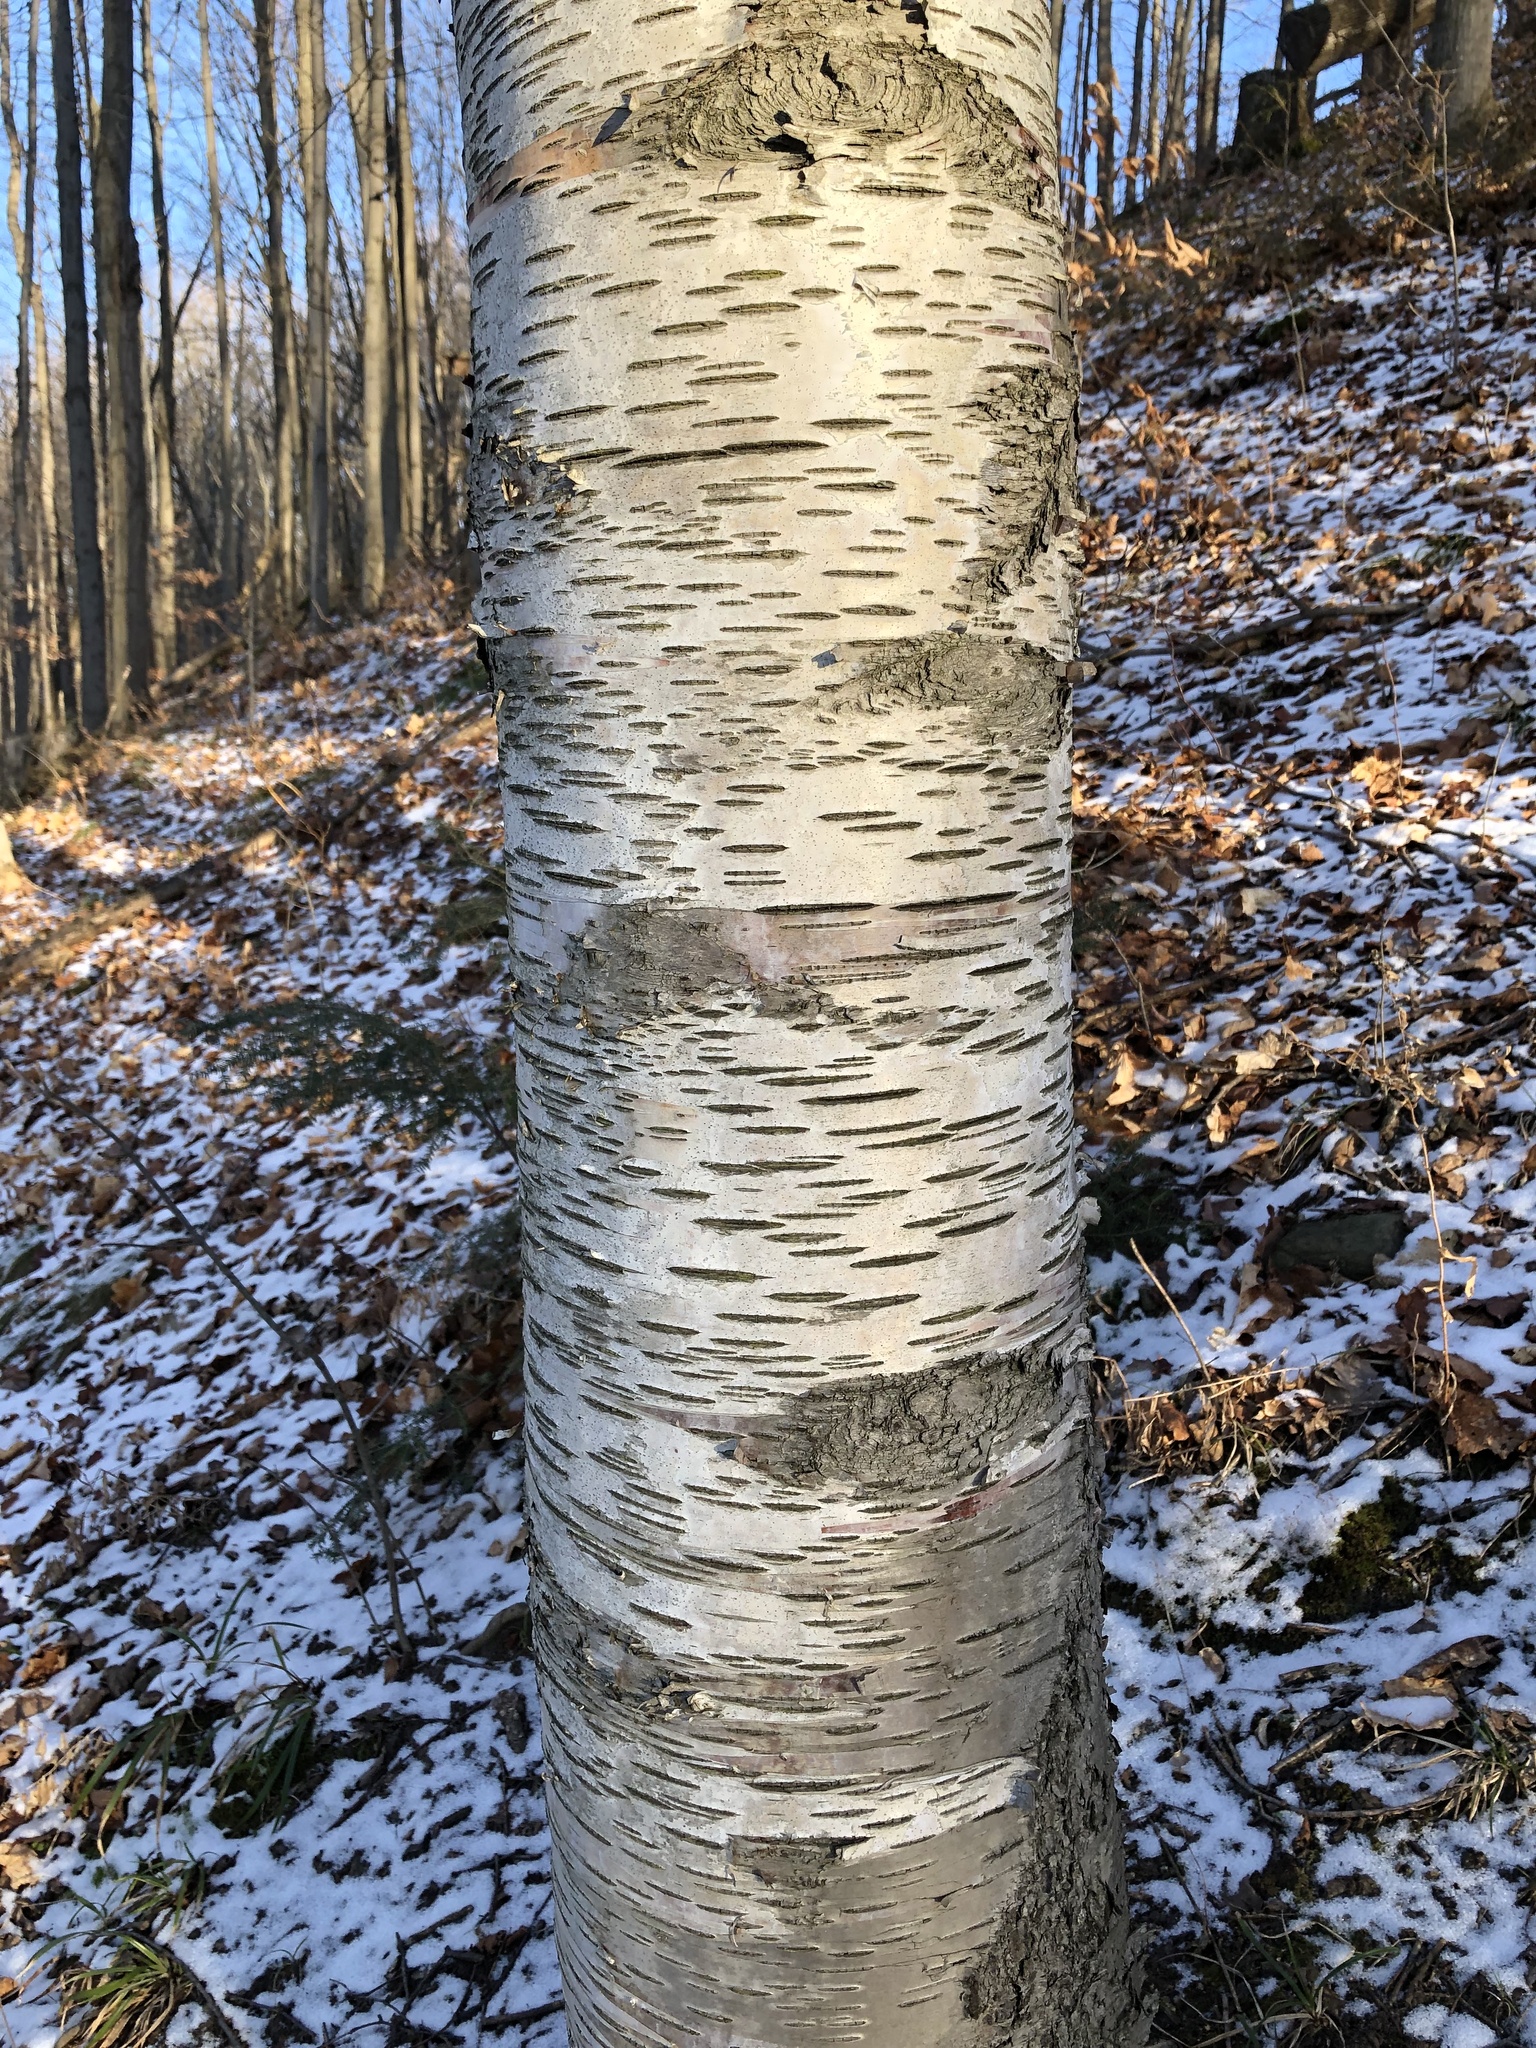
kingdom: Plantae
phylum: Tracheophyta
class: Magnoliopsida
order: Fagales
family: Betulaceae
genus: Betula
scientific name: Betula papyrifera
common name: Paper birch
